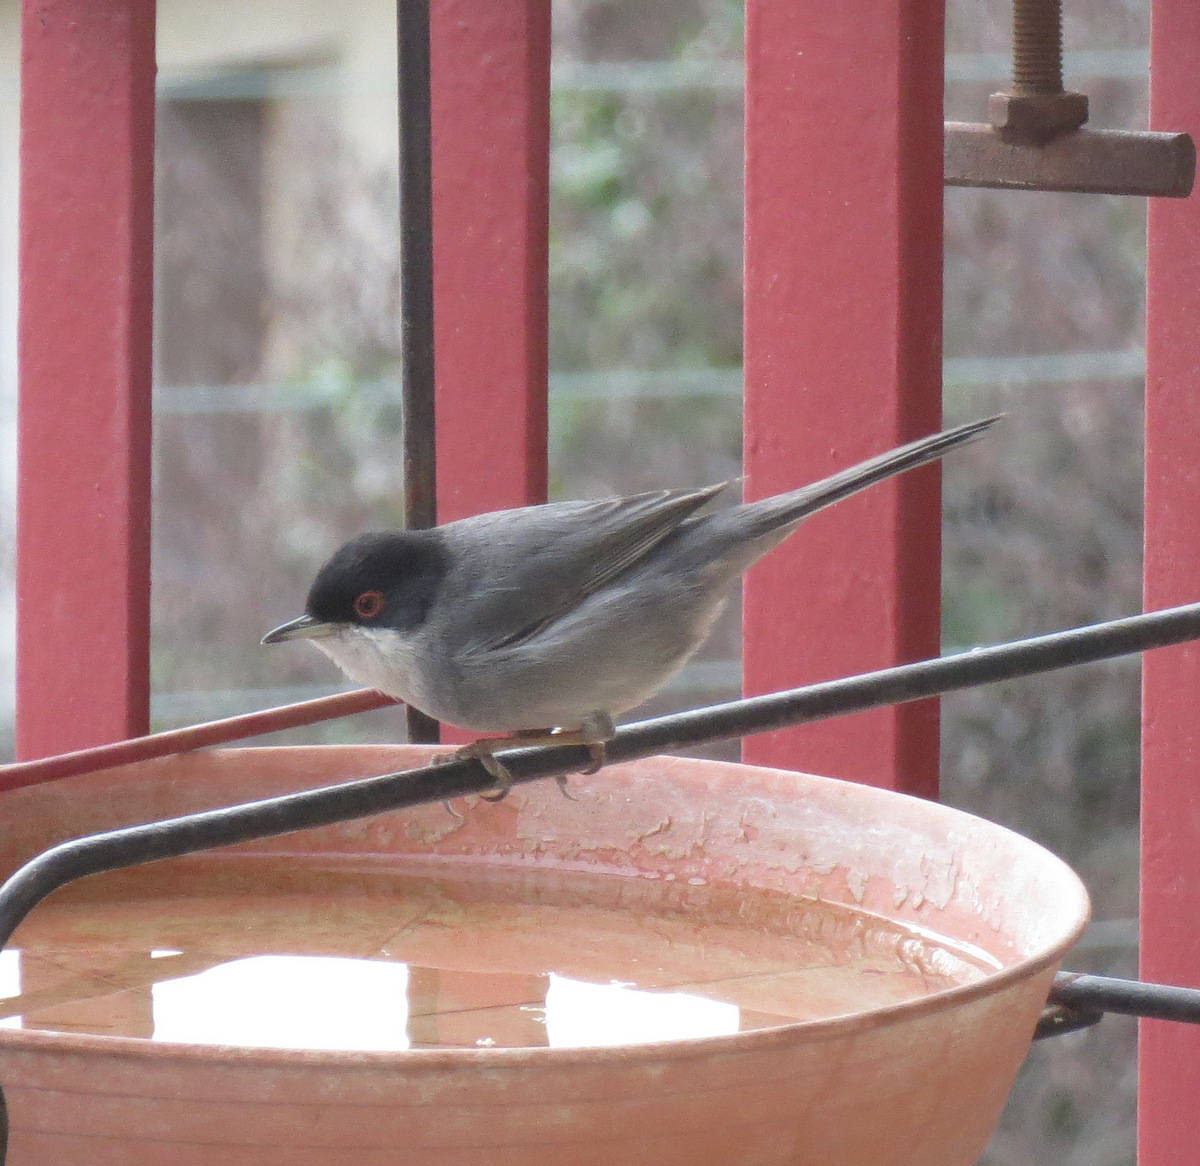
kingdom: Animalia
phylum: Chordata
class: Aves
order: Passeriformes
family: Sylviidae
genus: Curruca
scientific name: Curruca melanocephala
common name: Sardinian warbler
